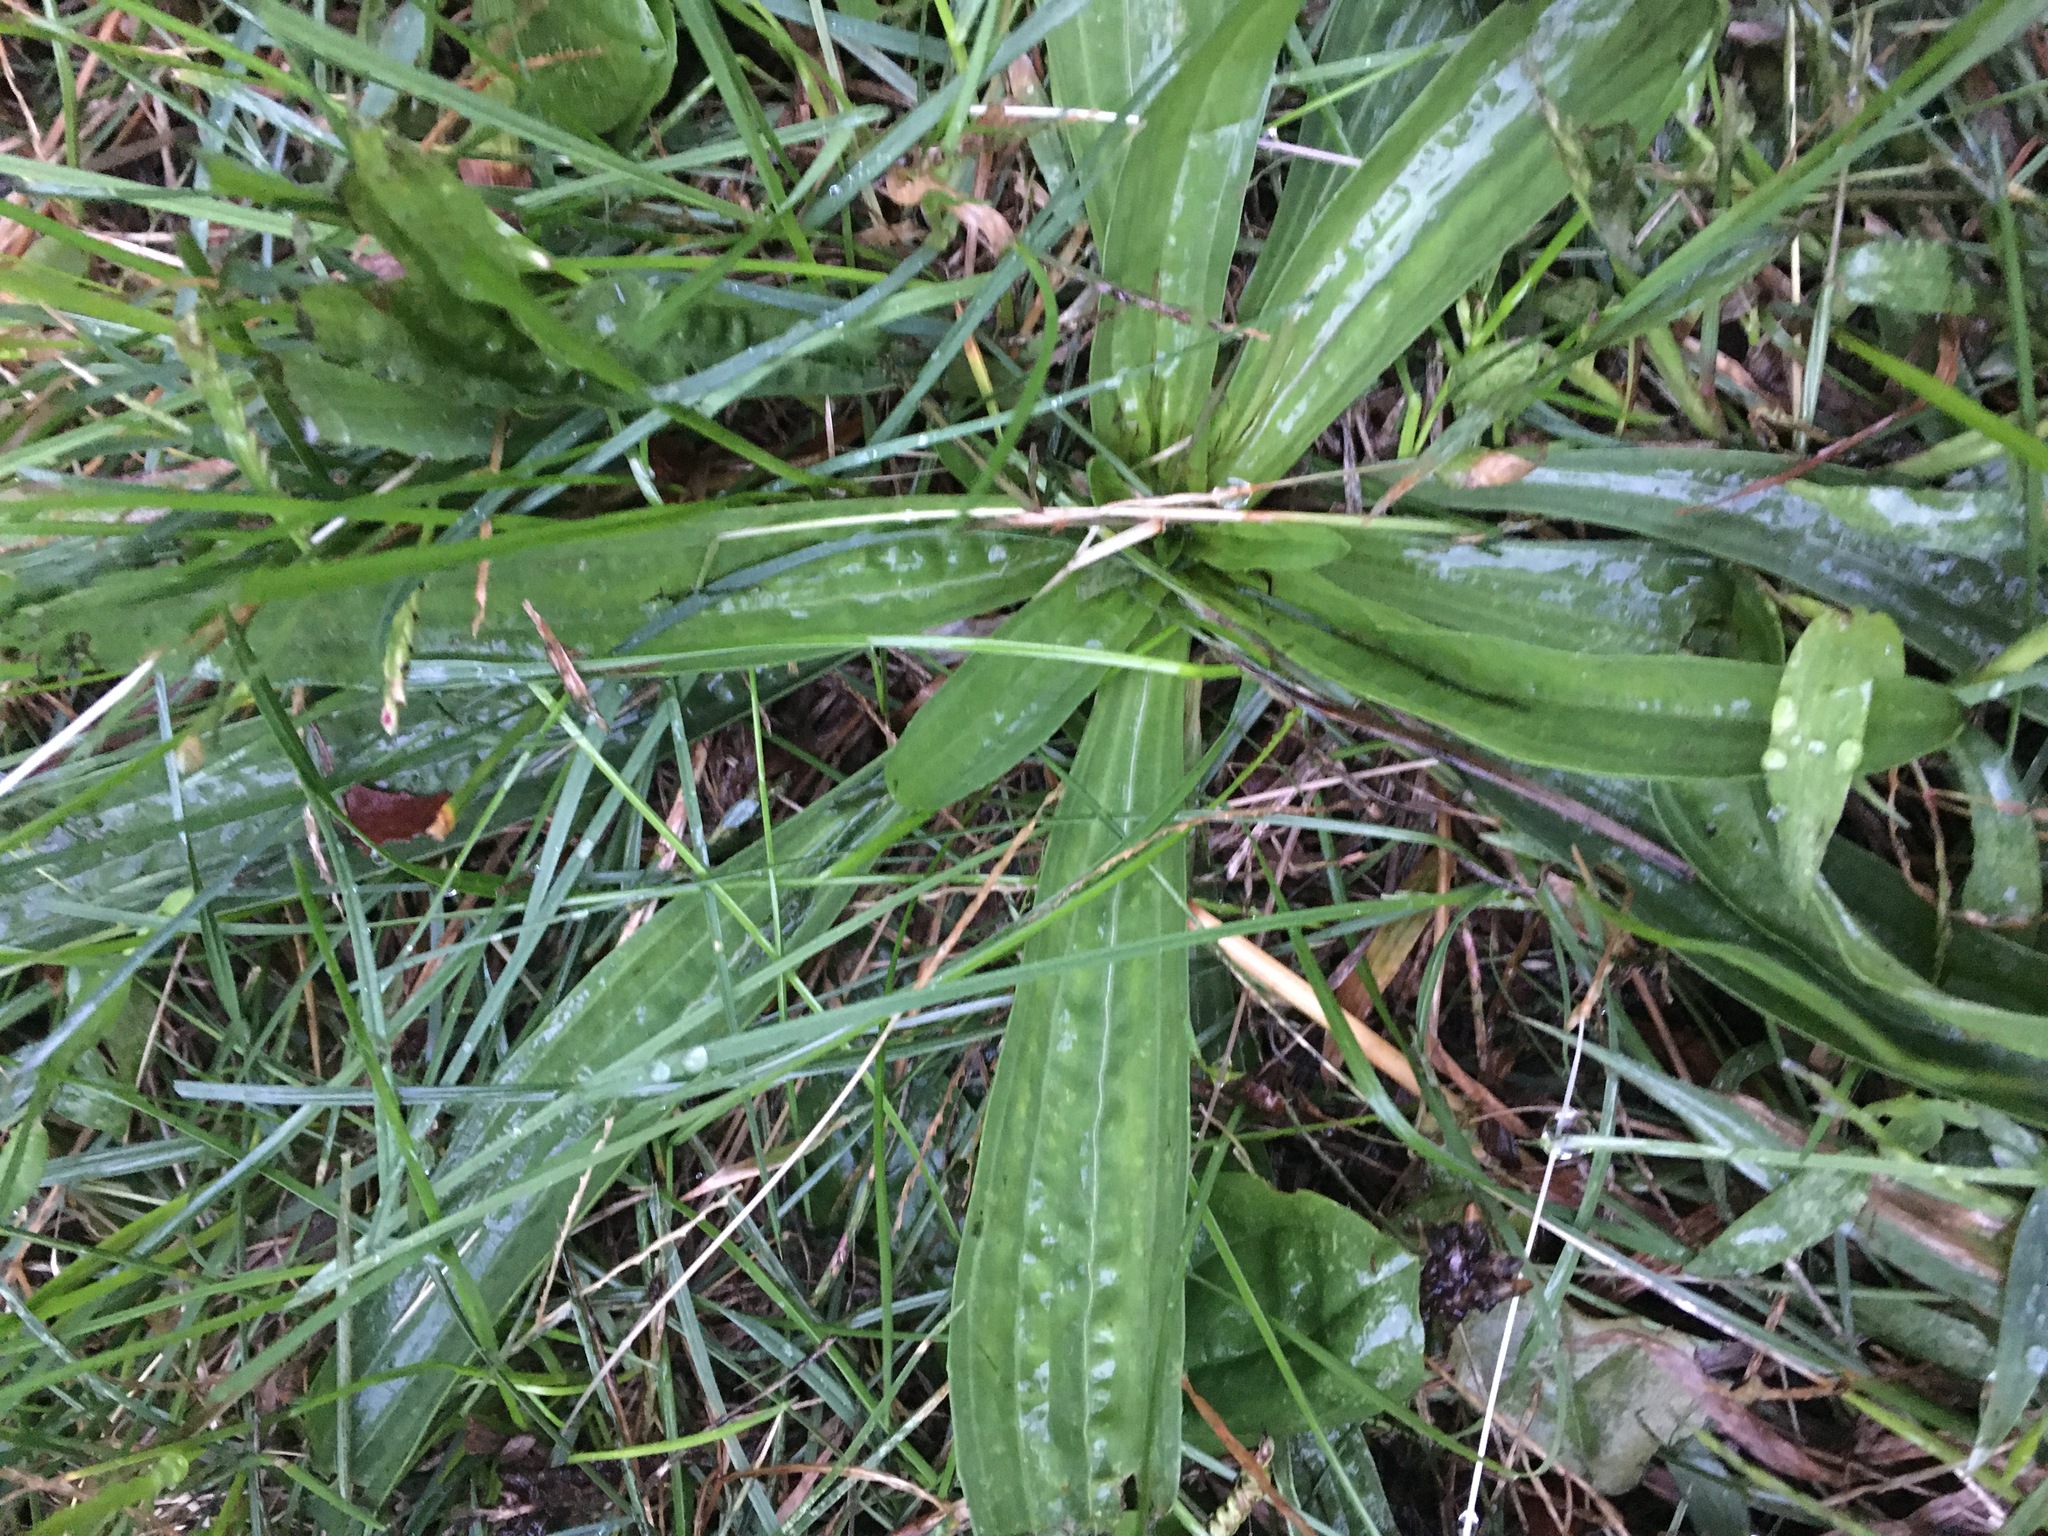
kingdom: Plantae
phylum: Tracheophyta
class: Magnoliopsida
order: Lamiales
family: Plantaginaceae
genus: Plantago
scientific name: Plantago lanceolata
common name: Ribwort plantain
